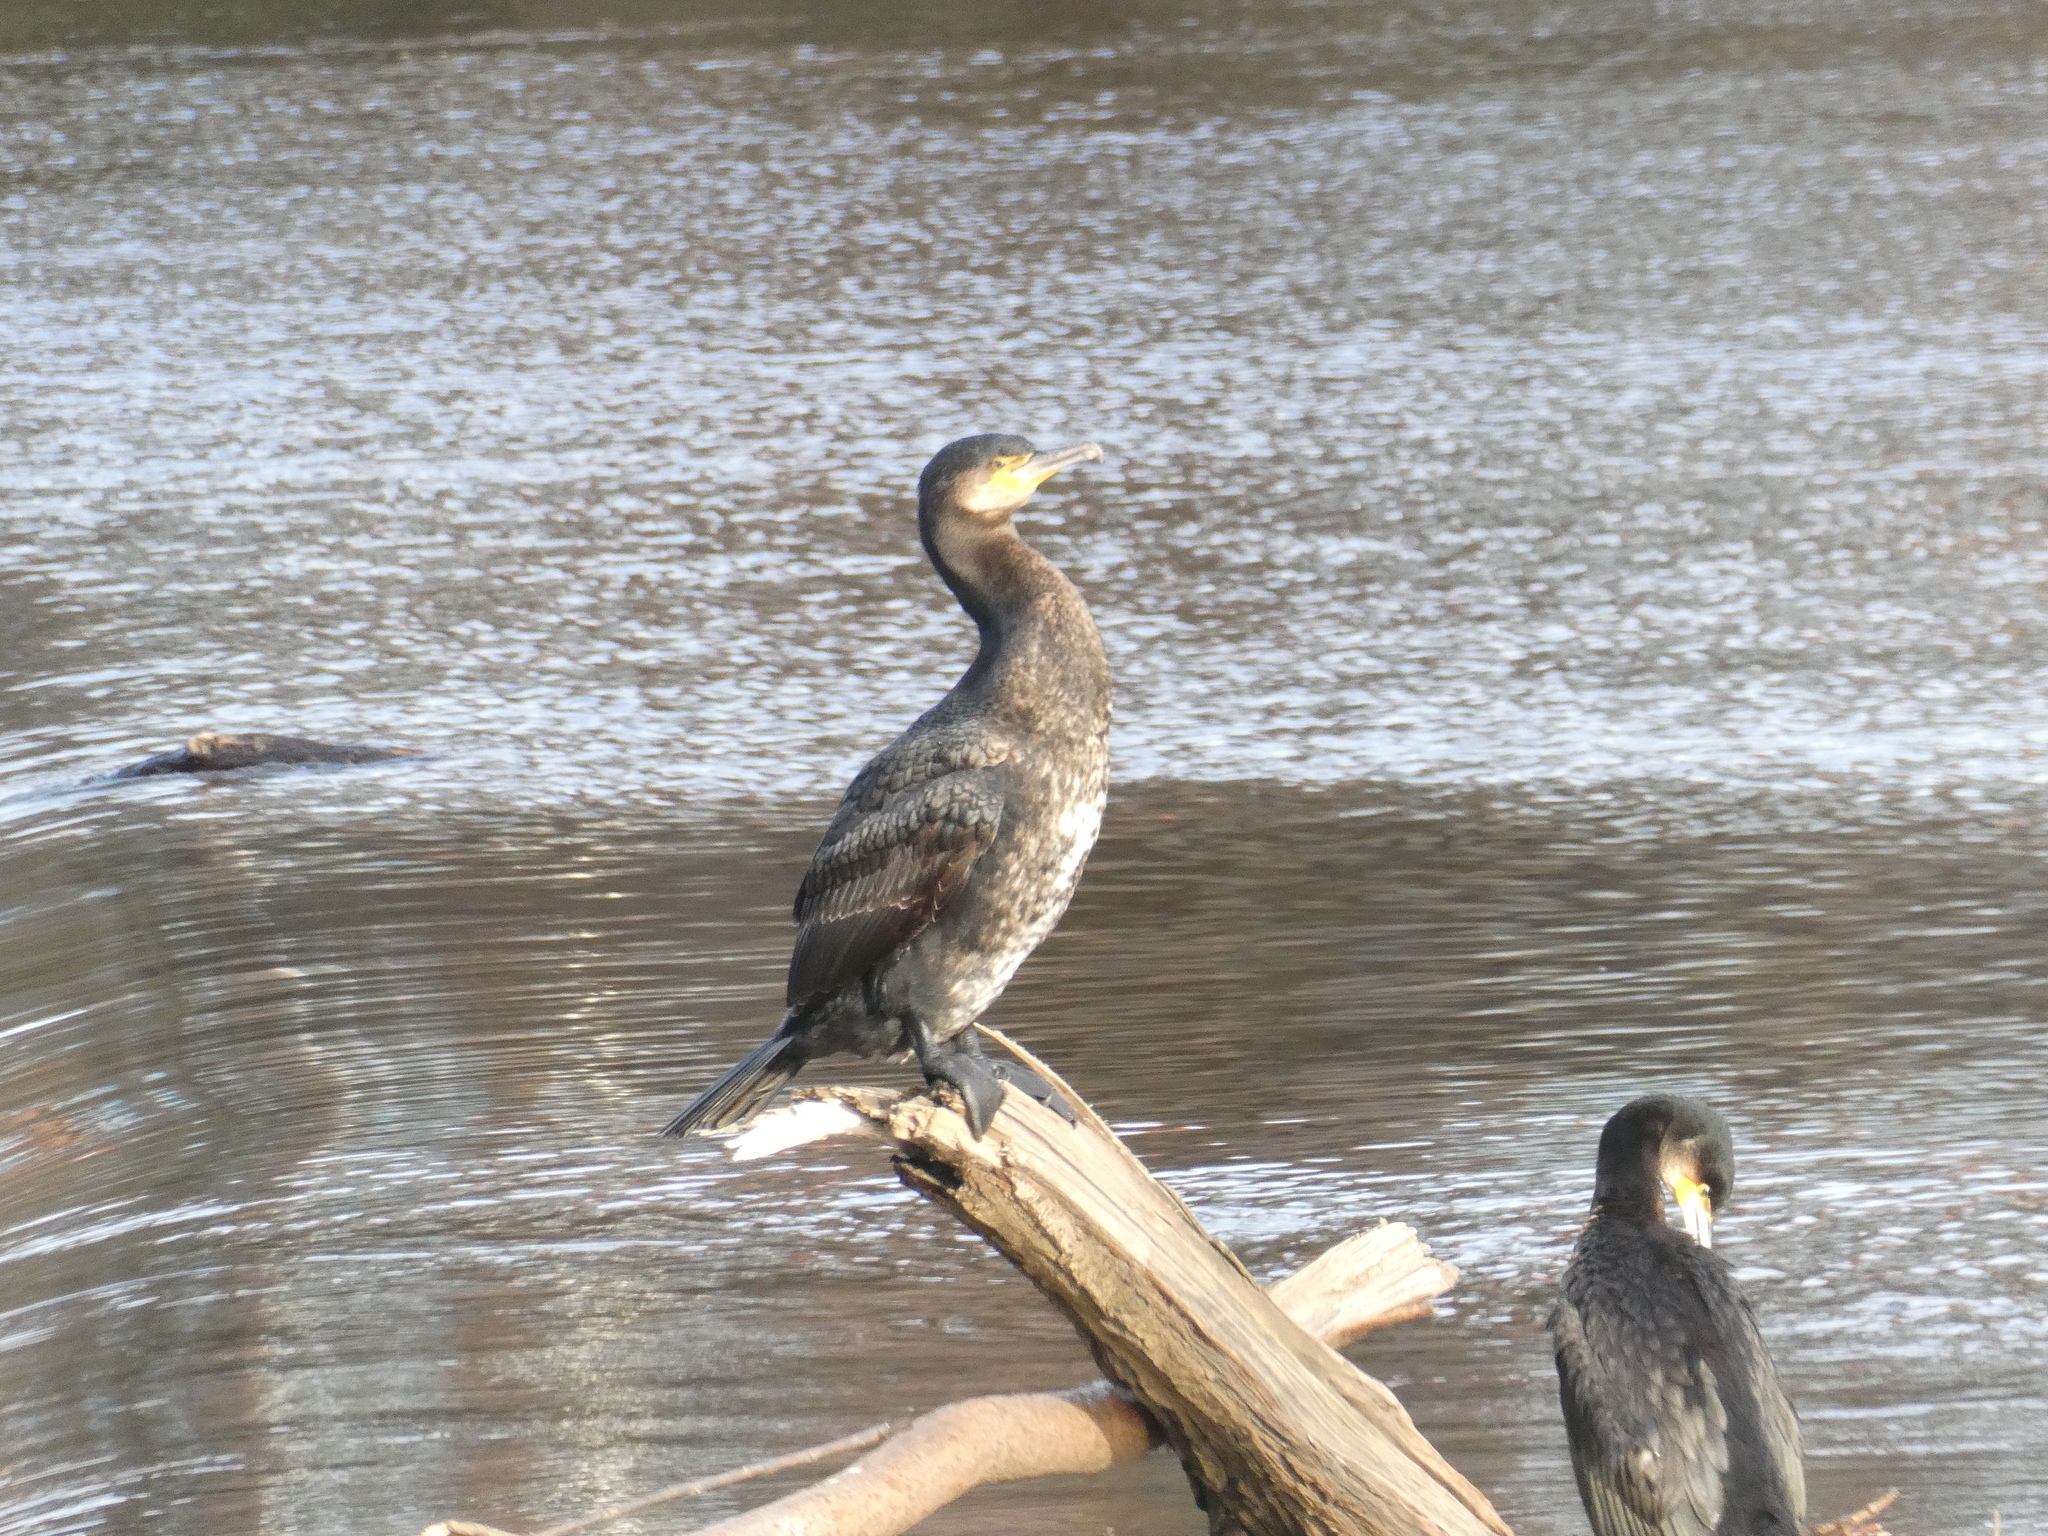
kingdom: Animalia
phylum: Chordata
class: Aves
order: Suliformes
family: Phalacrocoracidae
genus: Phalacrocorax
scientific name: Phalacrocorax carbo
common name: Great cormorant
